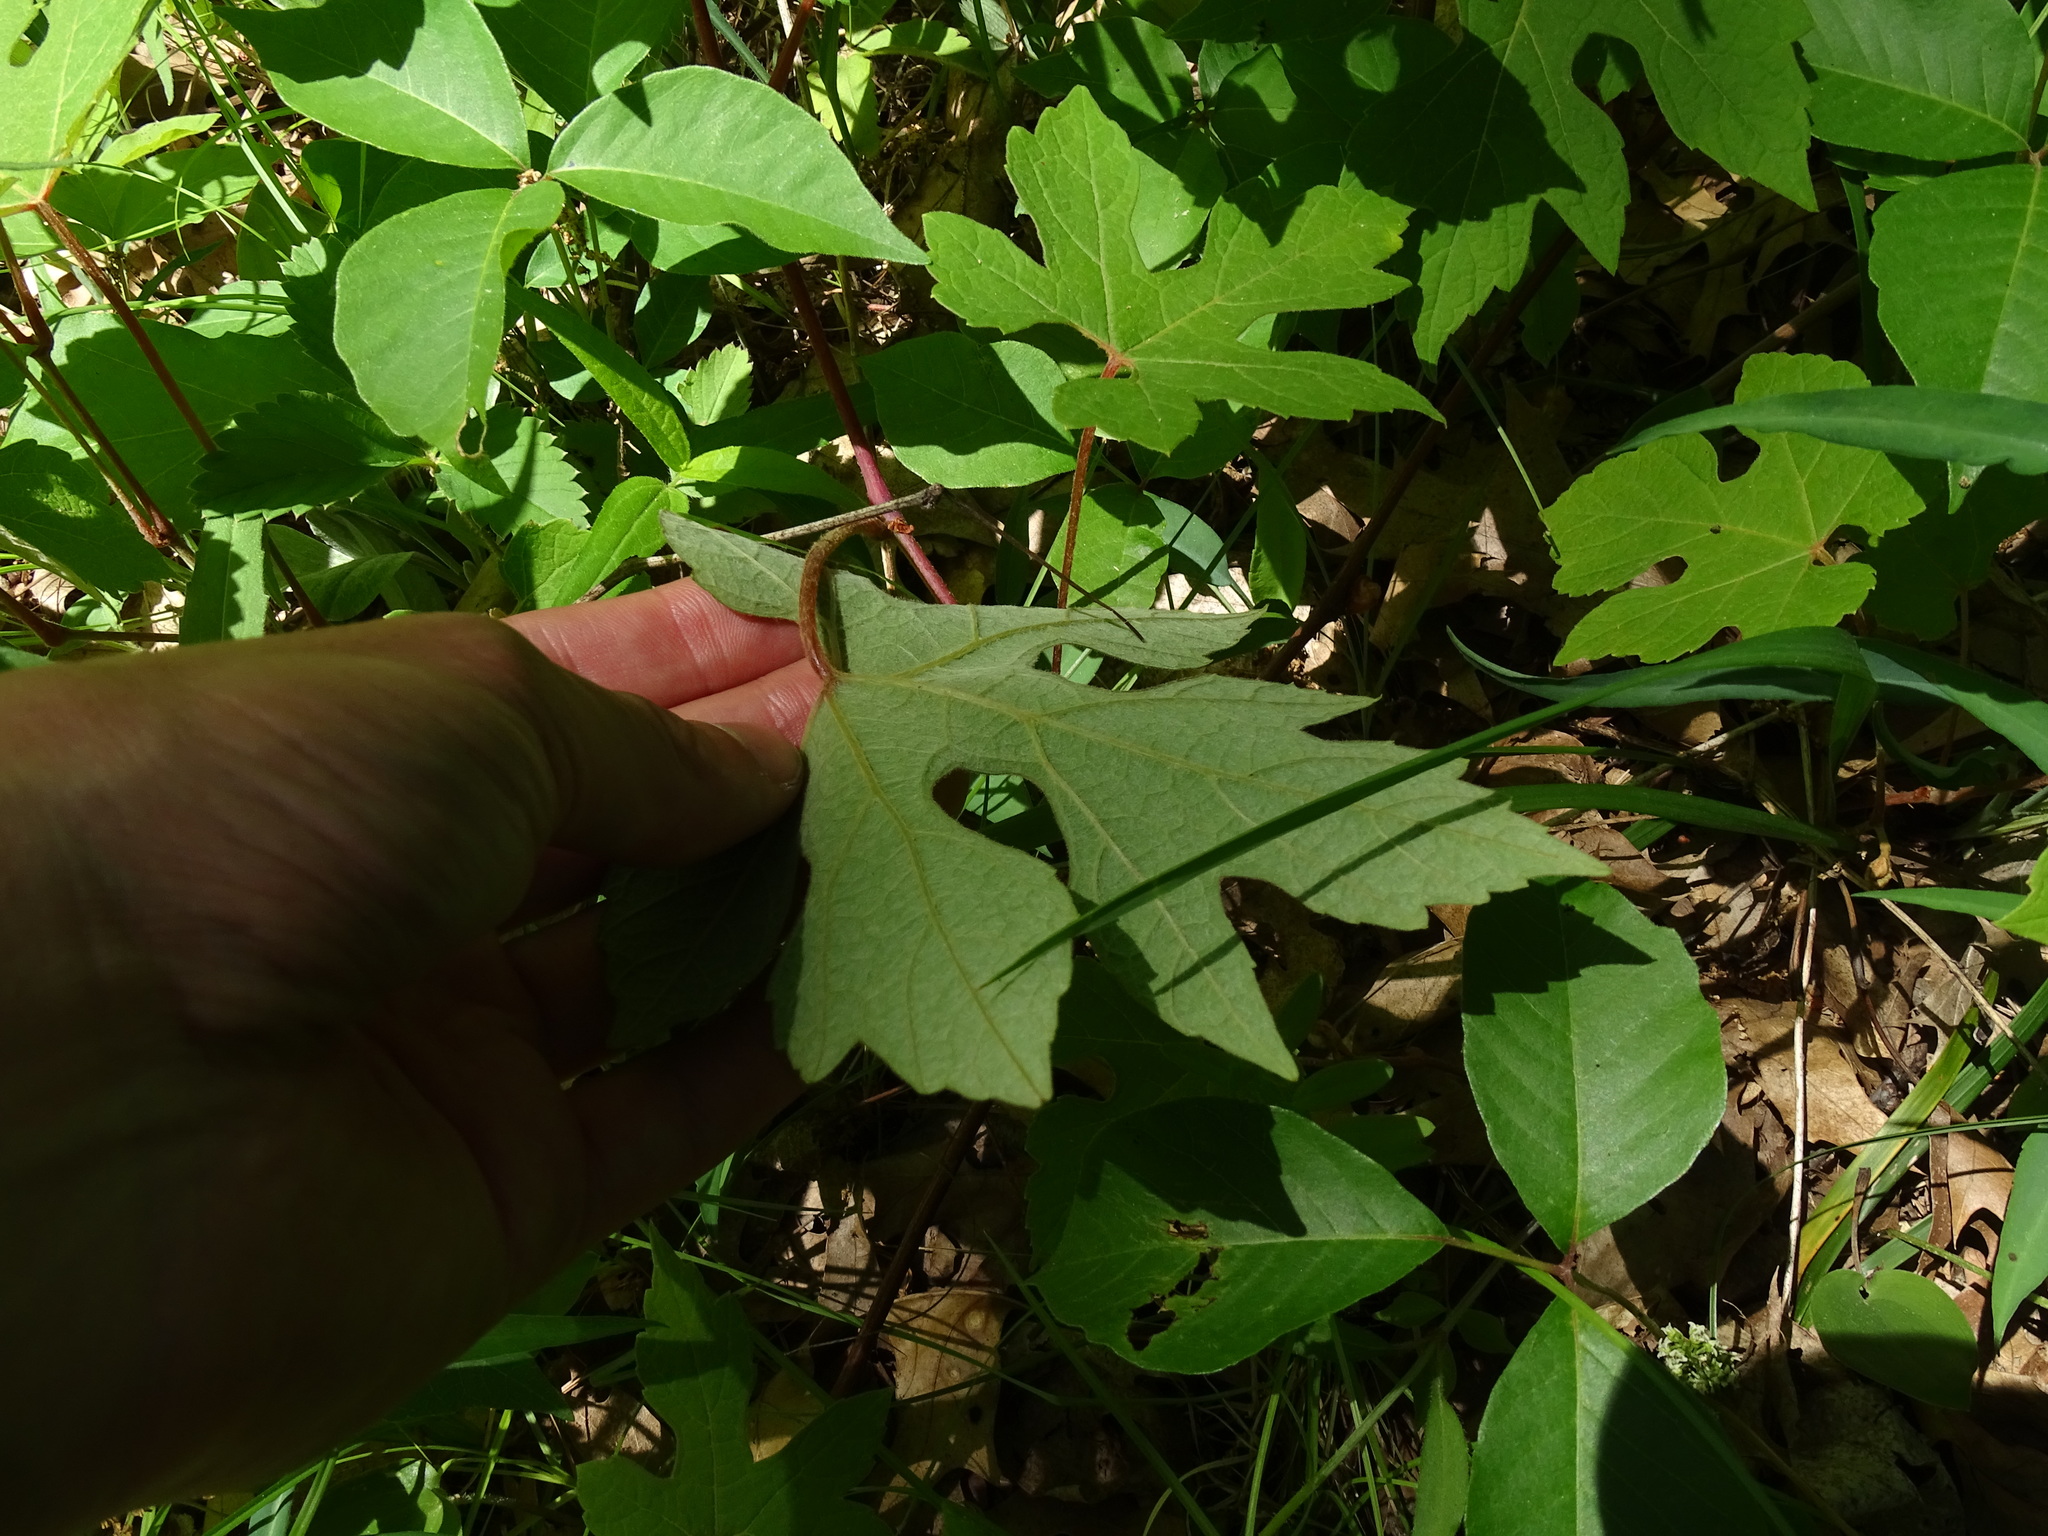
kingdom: Plantae
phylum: Tracheophyta
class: Magnoliopsida
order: Vitales
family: Vitaceae
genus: Vitis
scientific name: Vitis aestivalis
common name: Pigeon grape
